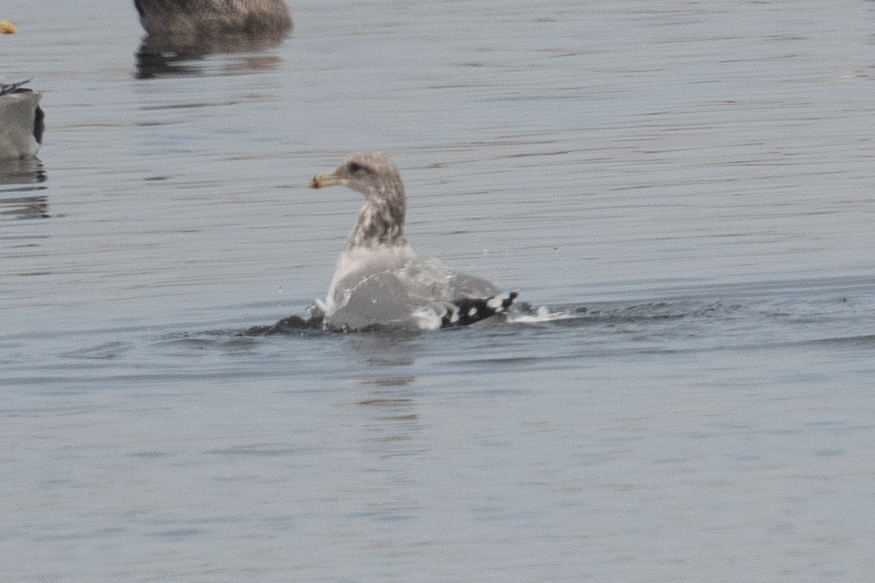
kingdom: Animalia
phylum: Chordata
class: Aves
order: Charadriiformes
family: Laridae
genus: Larus
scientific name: Larus californicus
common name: California gull
